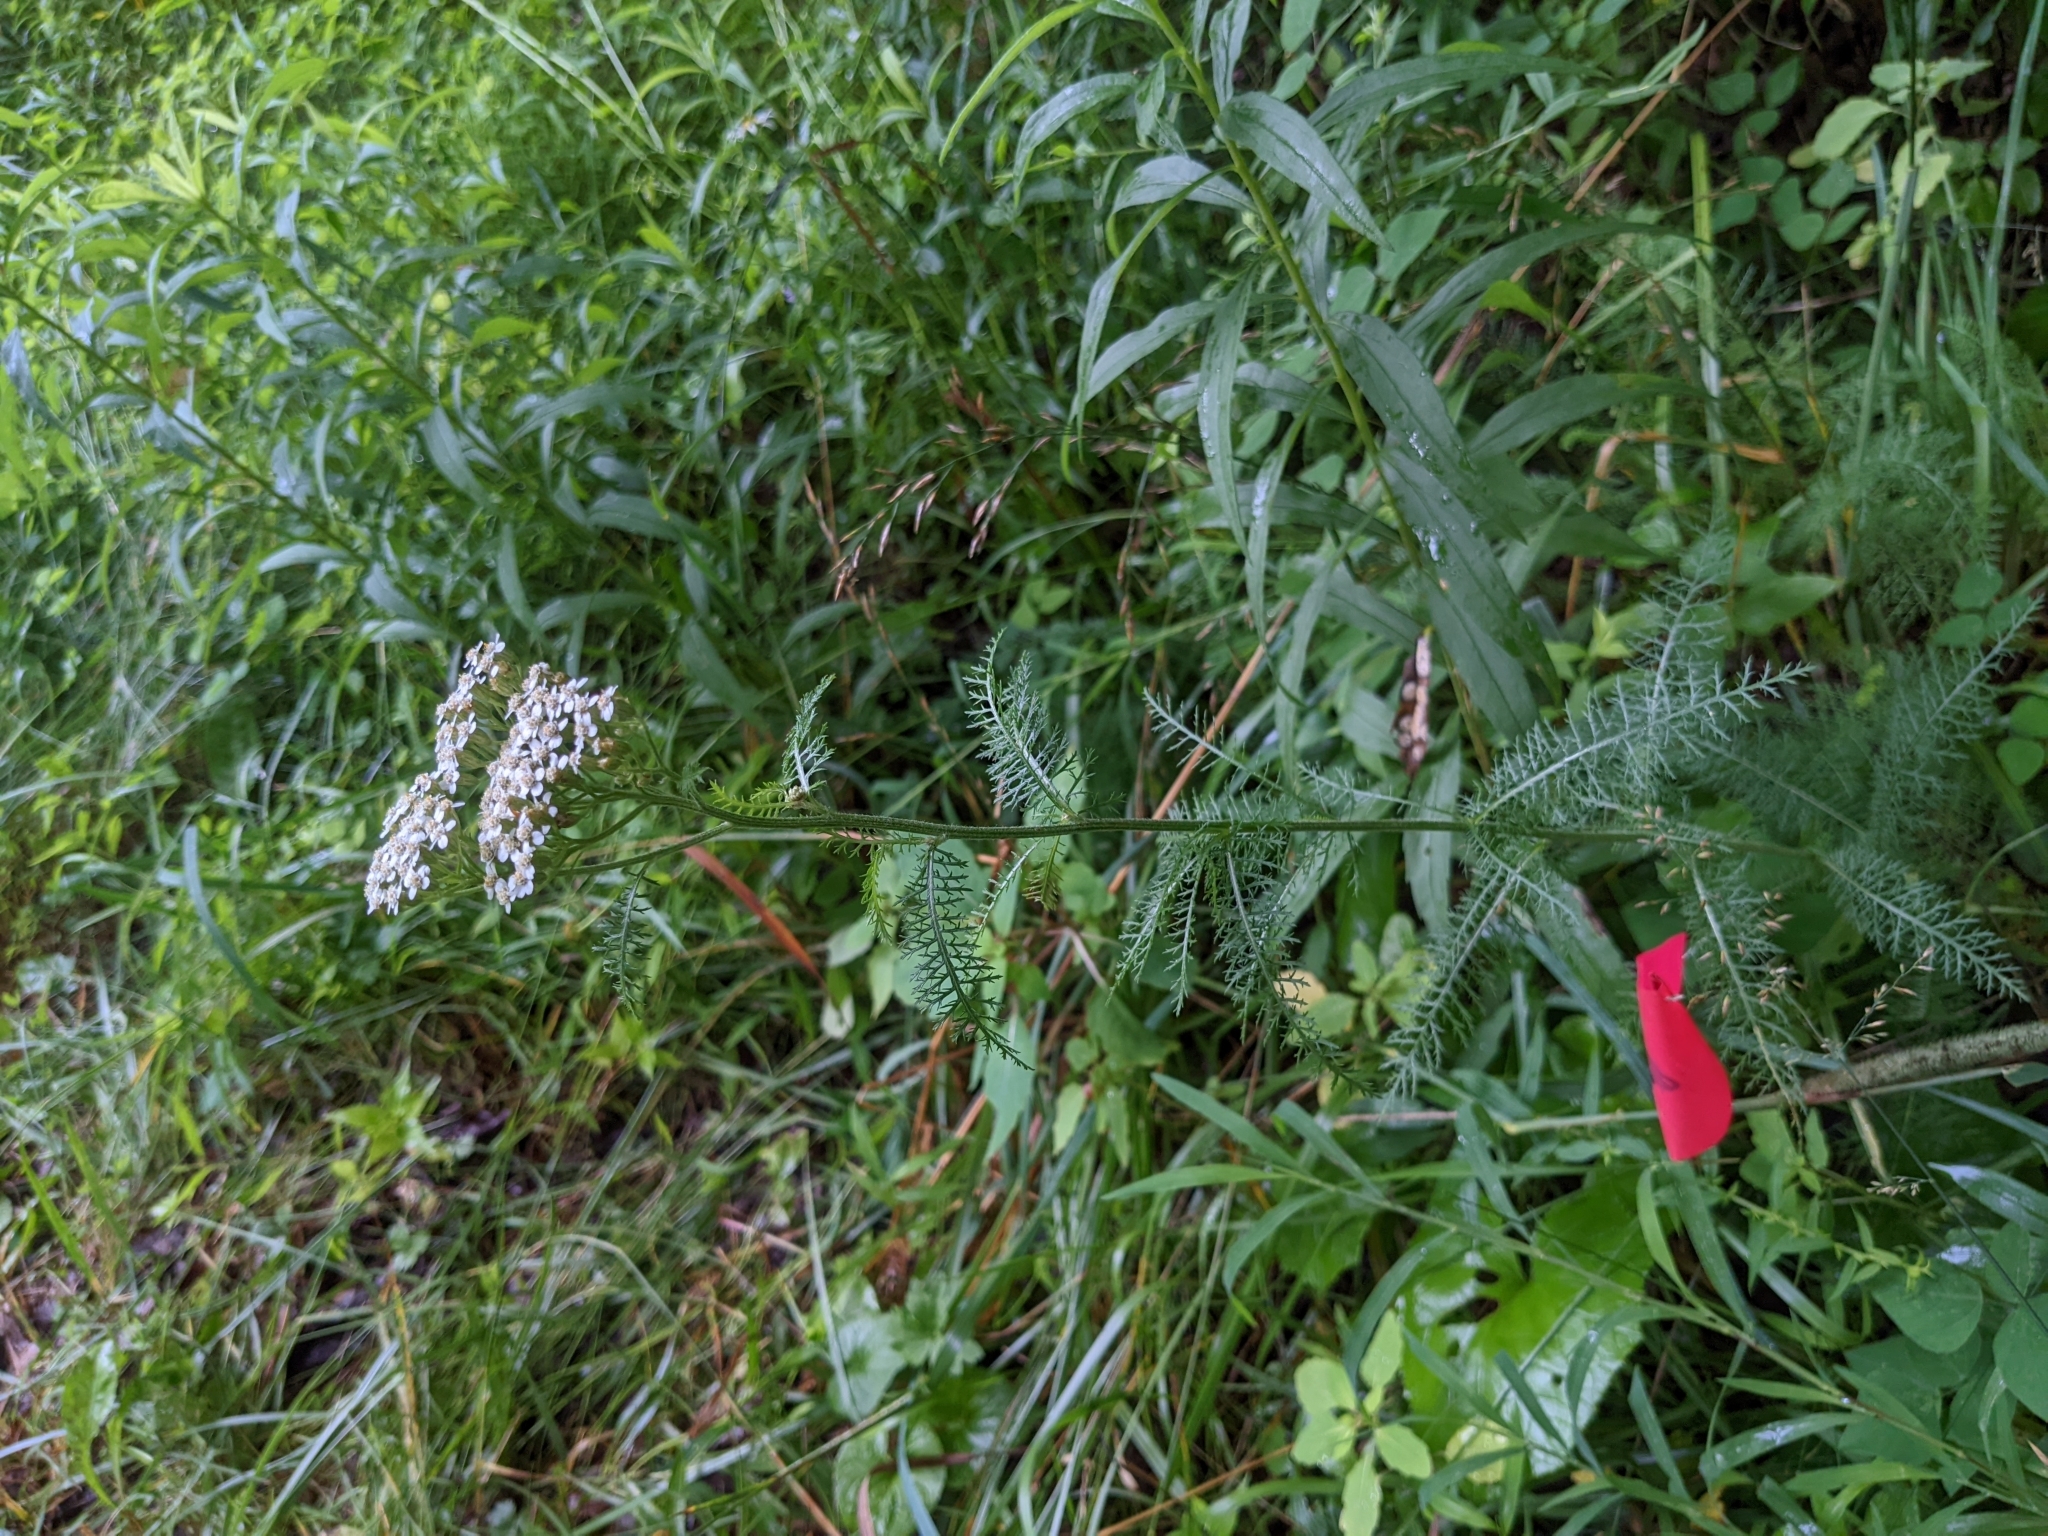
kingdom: Plantae
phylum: Tracheophyta
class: Magnoliopsida
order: Asterales
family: Asteraceae
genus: Achillea
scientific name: Achillea millefolium
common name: Yarrow
